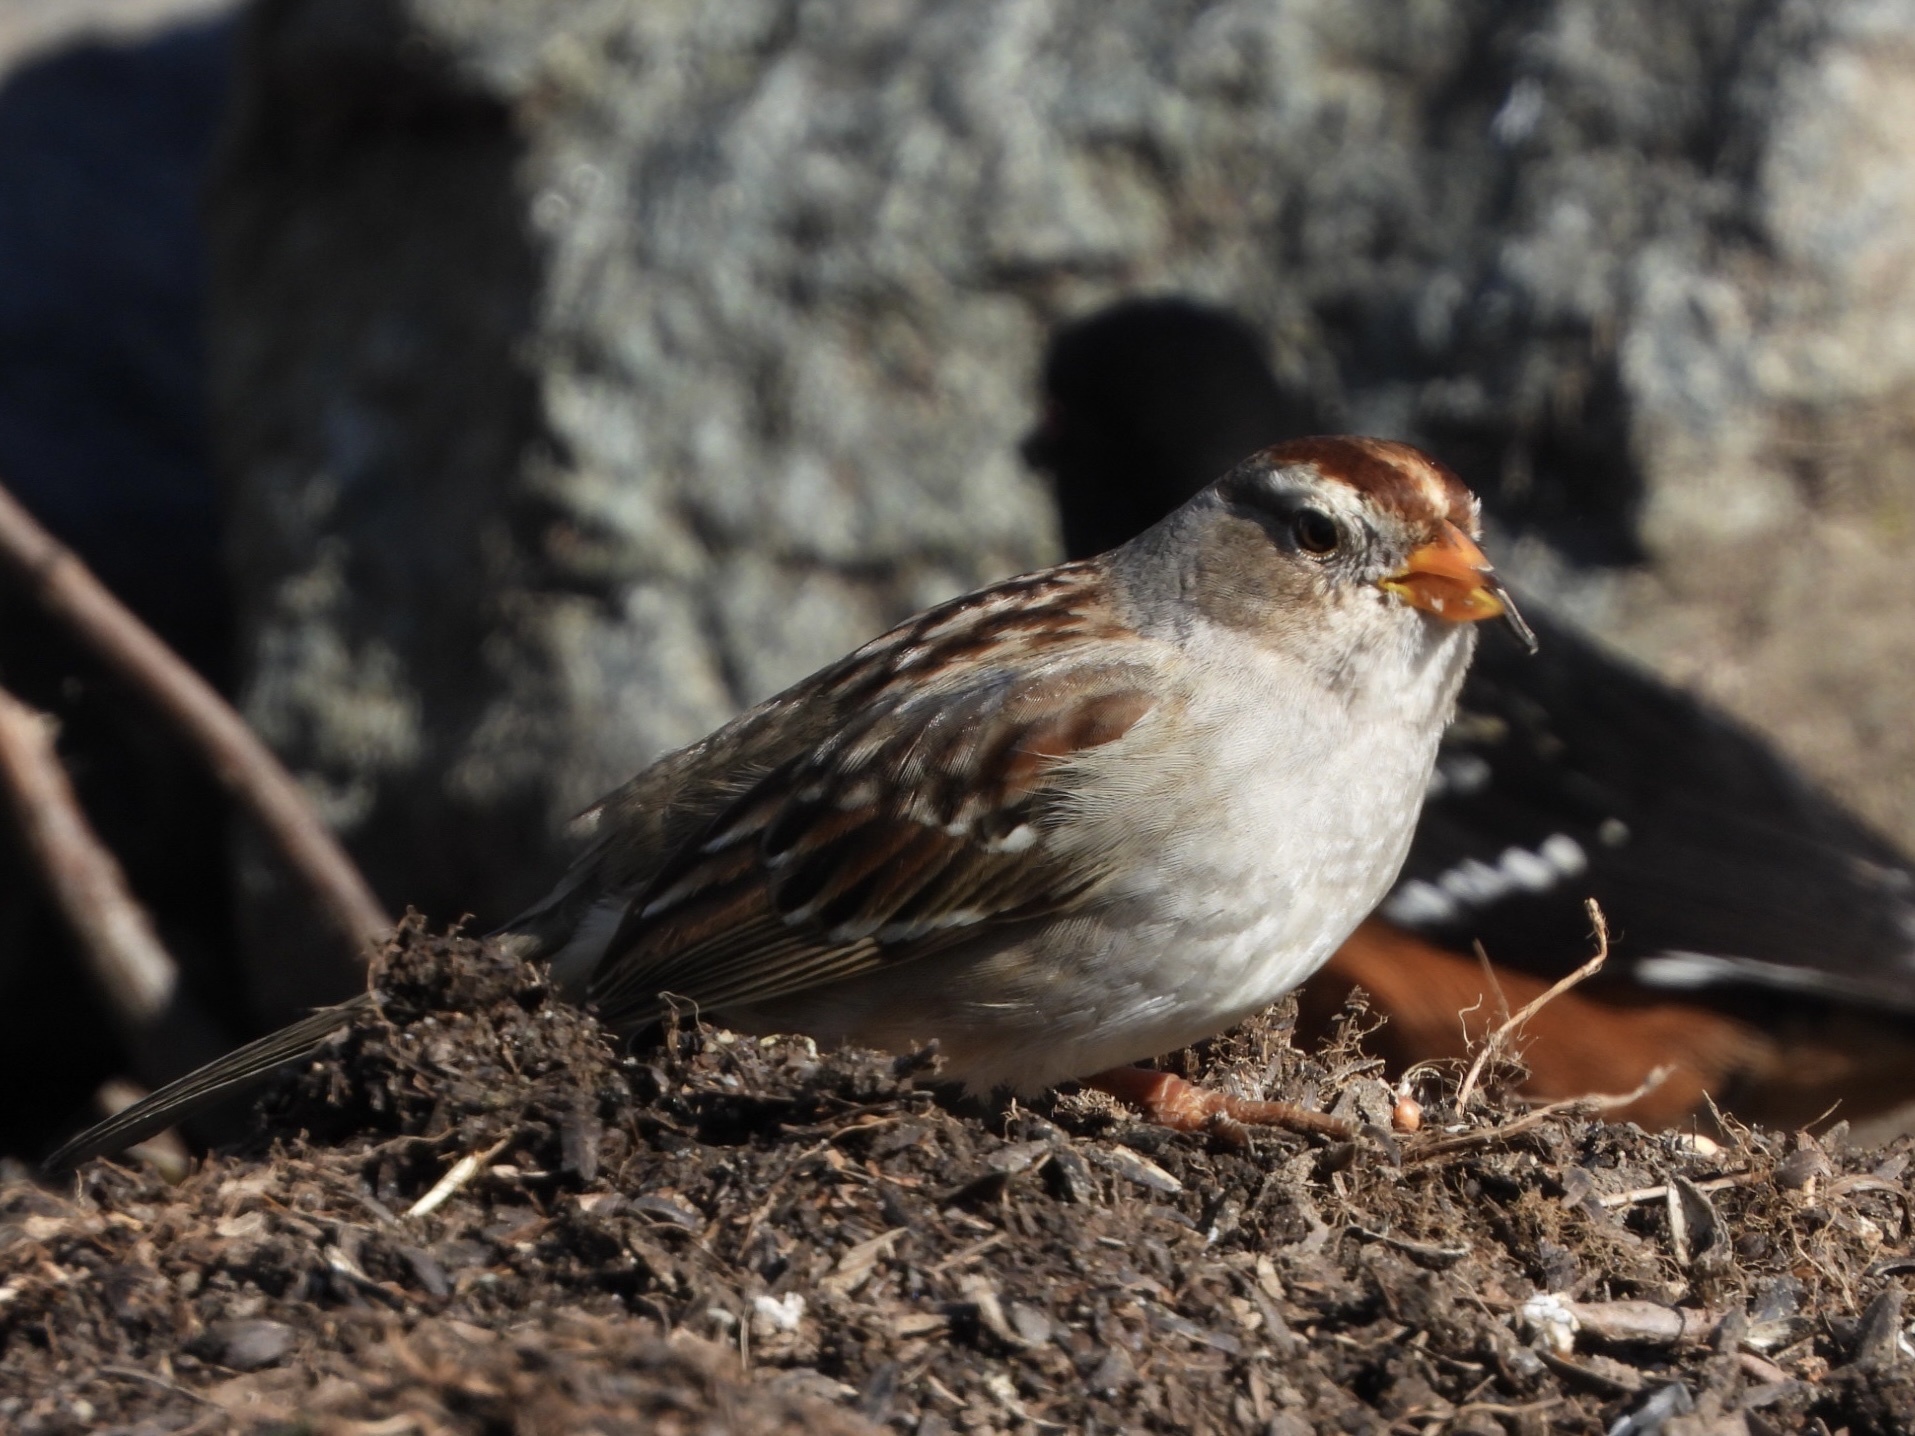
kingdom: Animalia
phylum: Chordata
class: Aves
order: Passeriformes
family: Passerellidae
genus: Zonotrichia
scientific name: Zonotrichia leucophrys
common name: White-crowned sparrow
